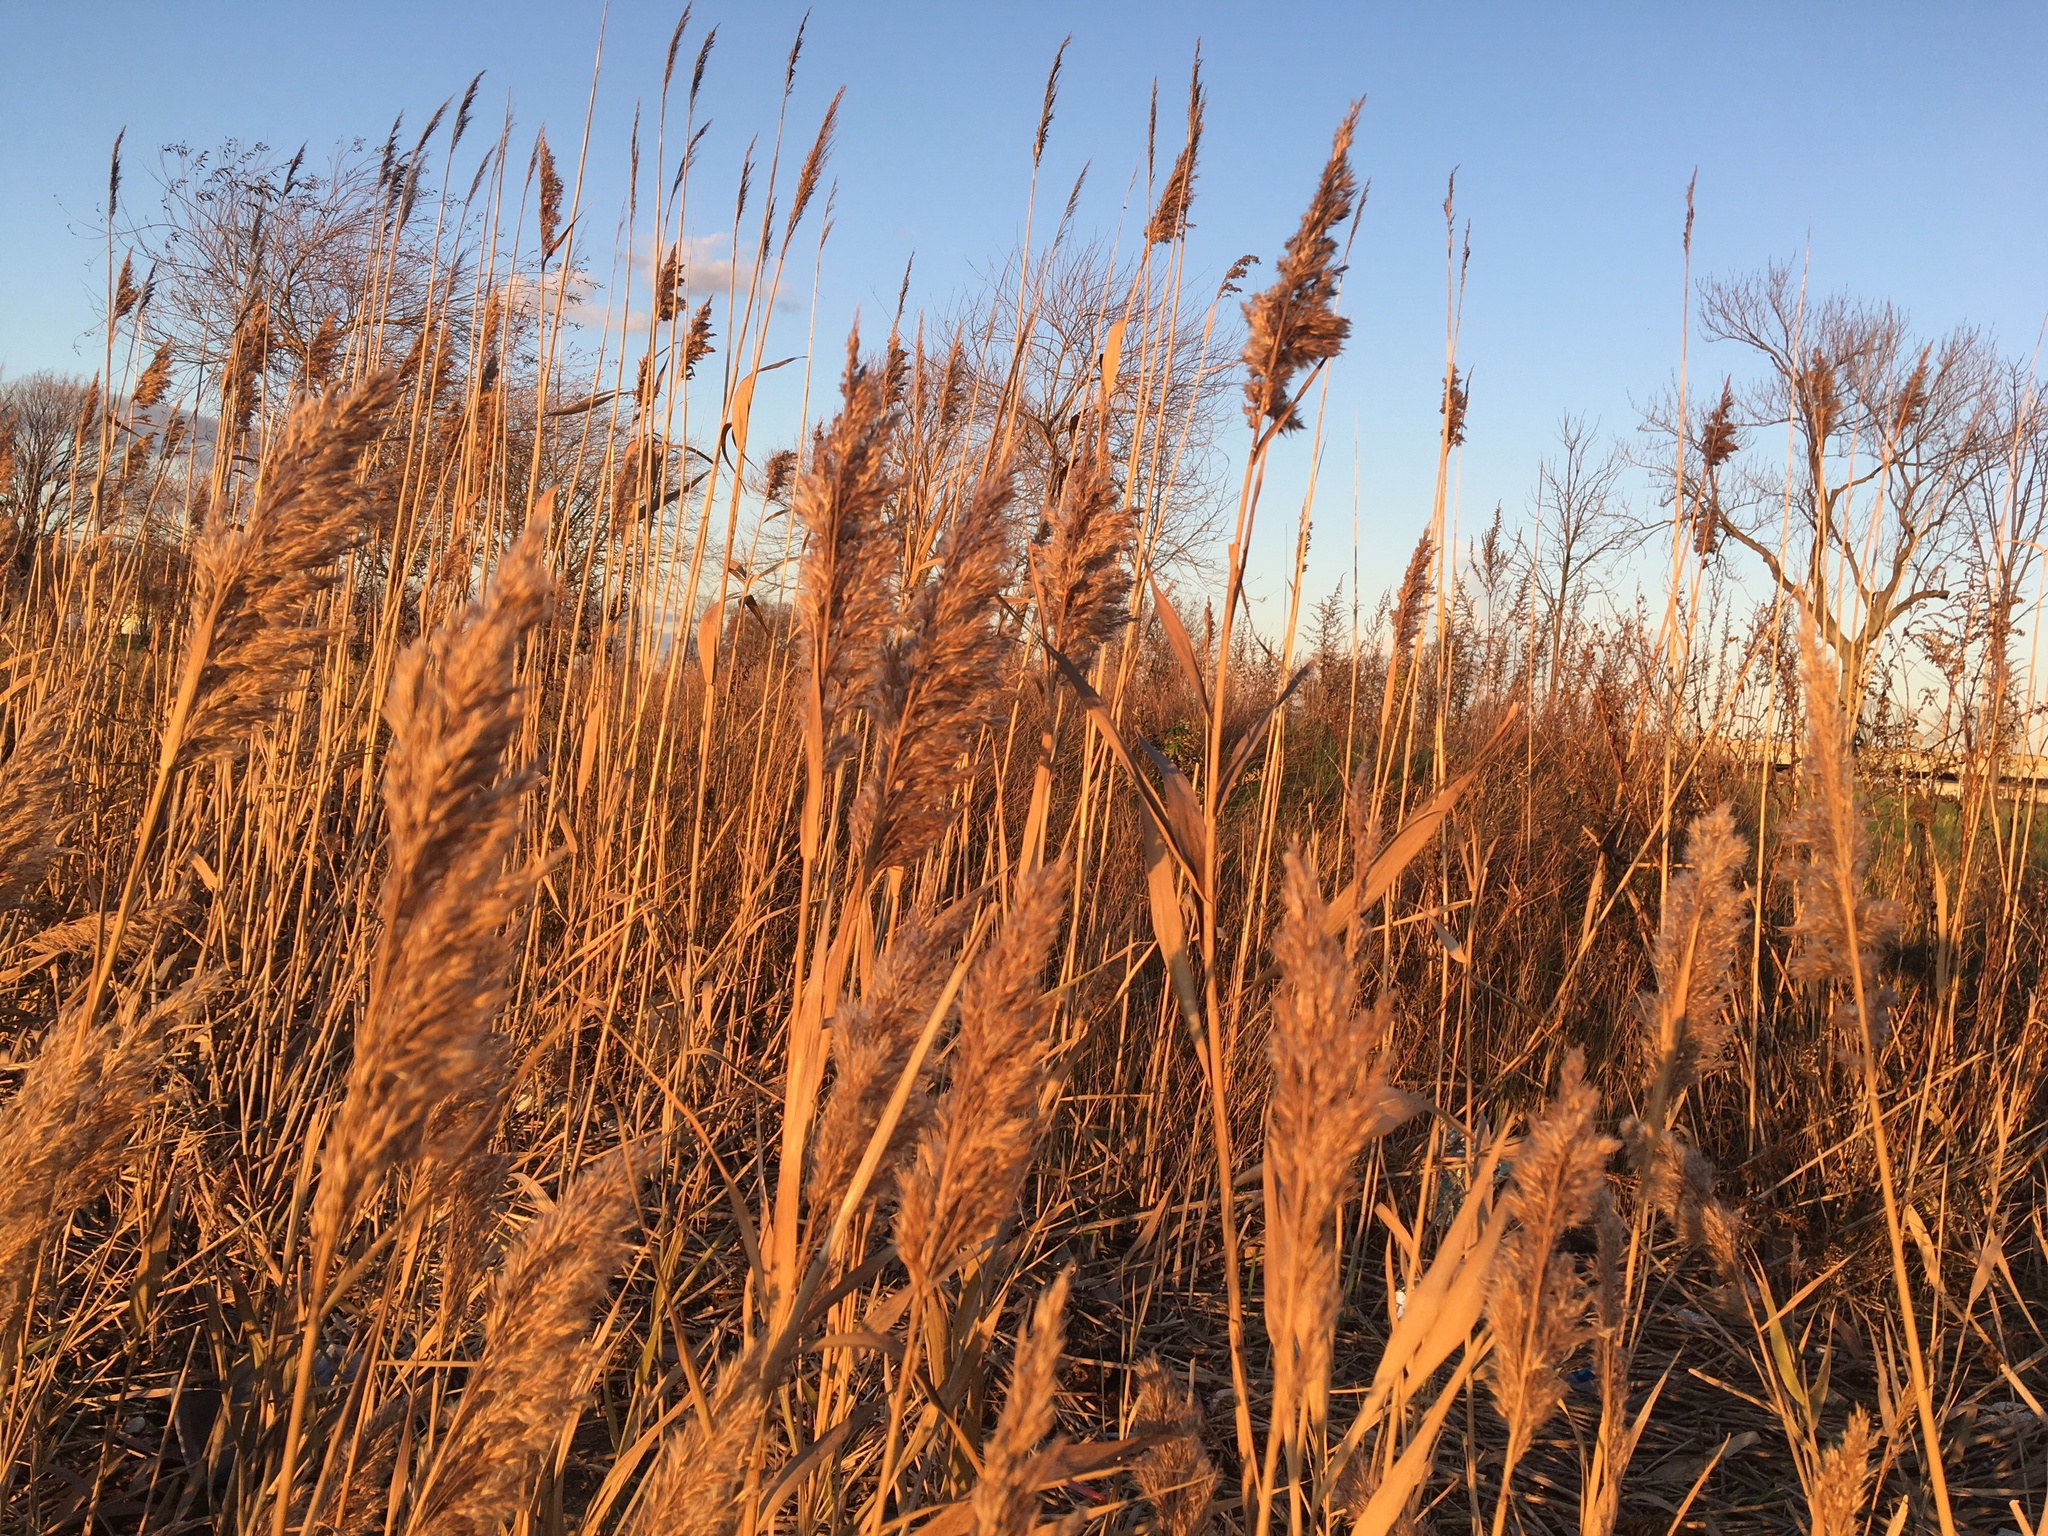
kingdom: Plantae
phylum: Tracheophyta
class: Liliopsida
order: Poales
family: Poaceae
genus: Phragmites
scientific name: Phragmites australis
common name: Common reed
